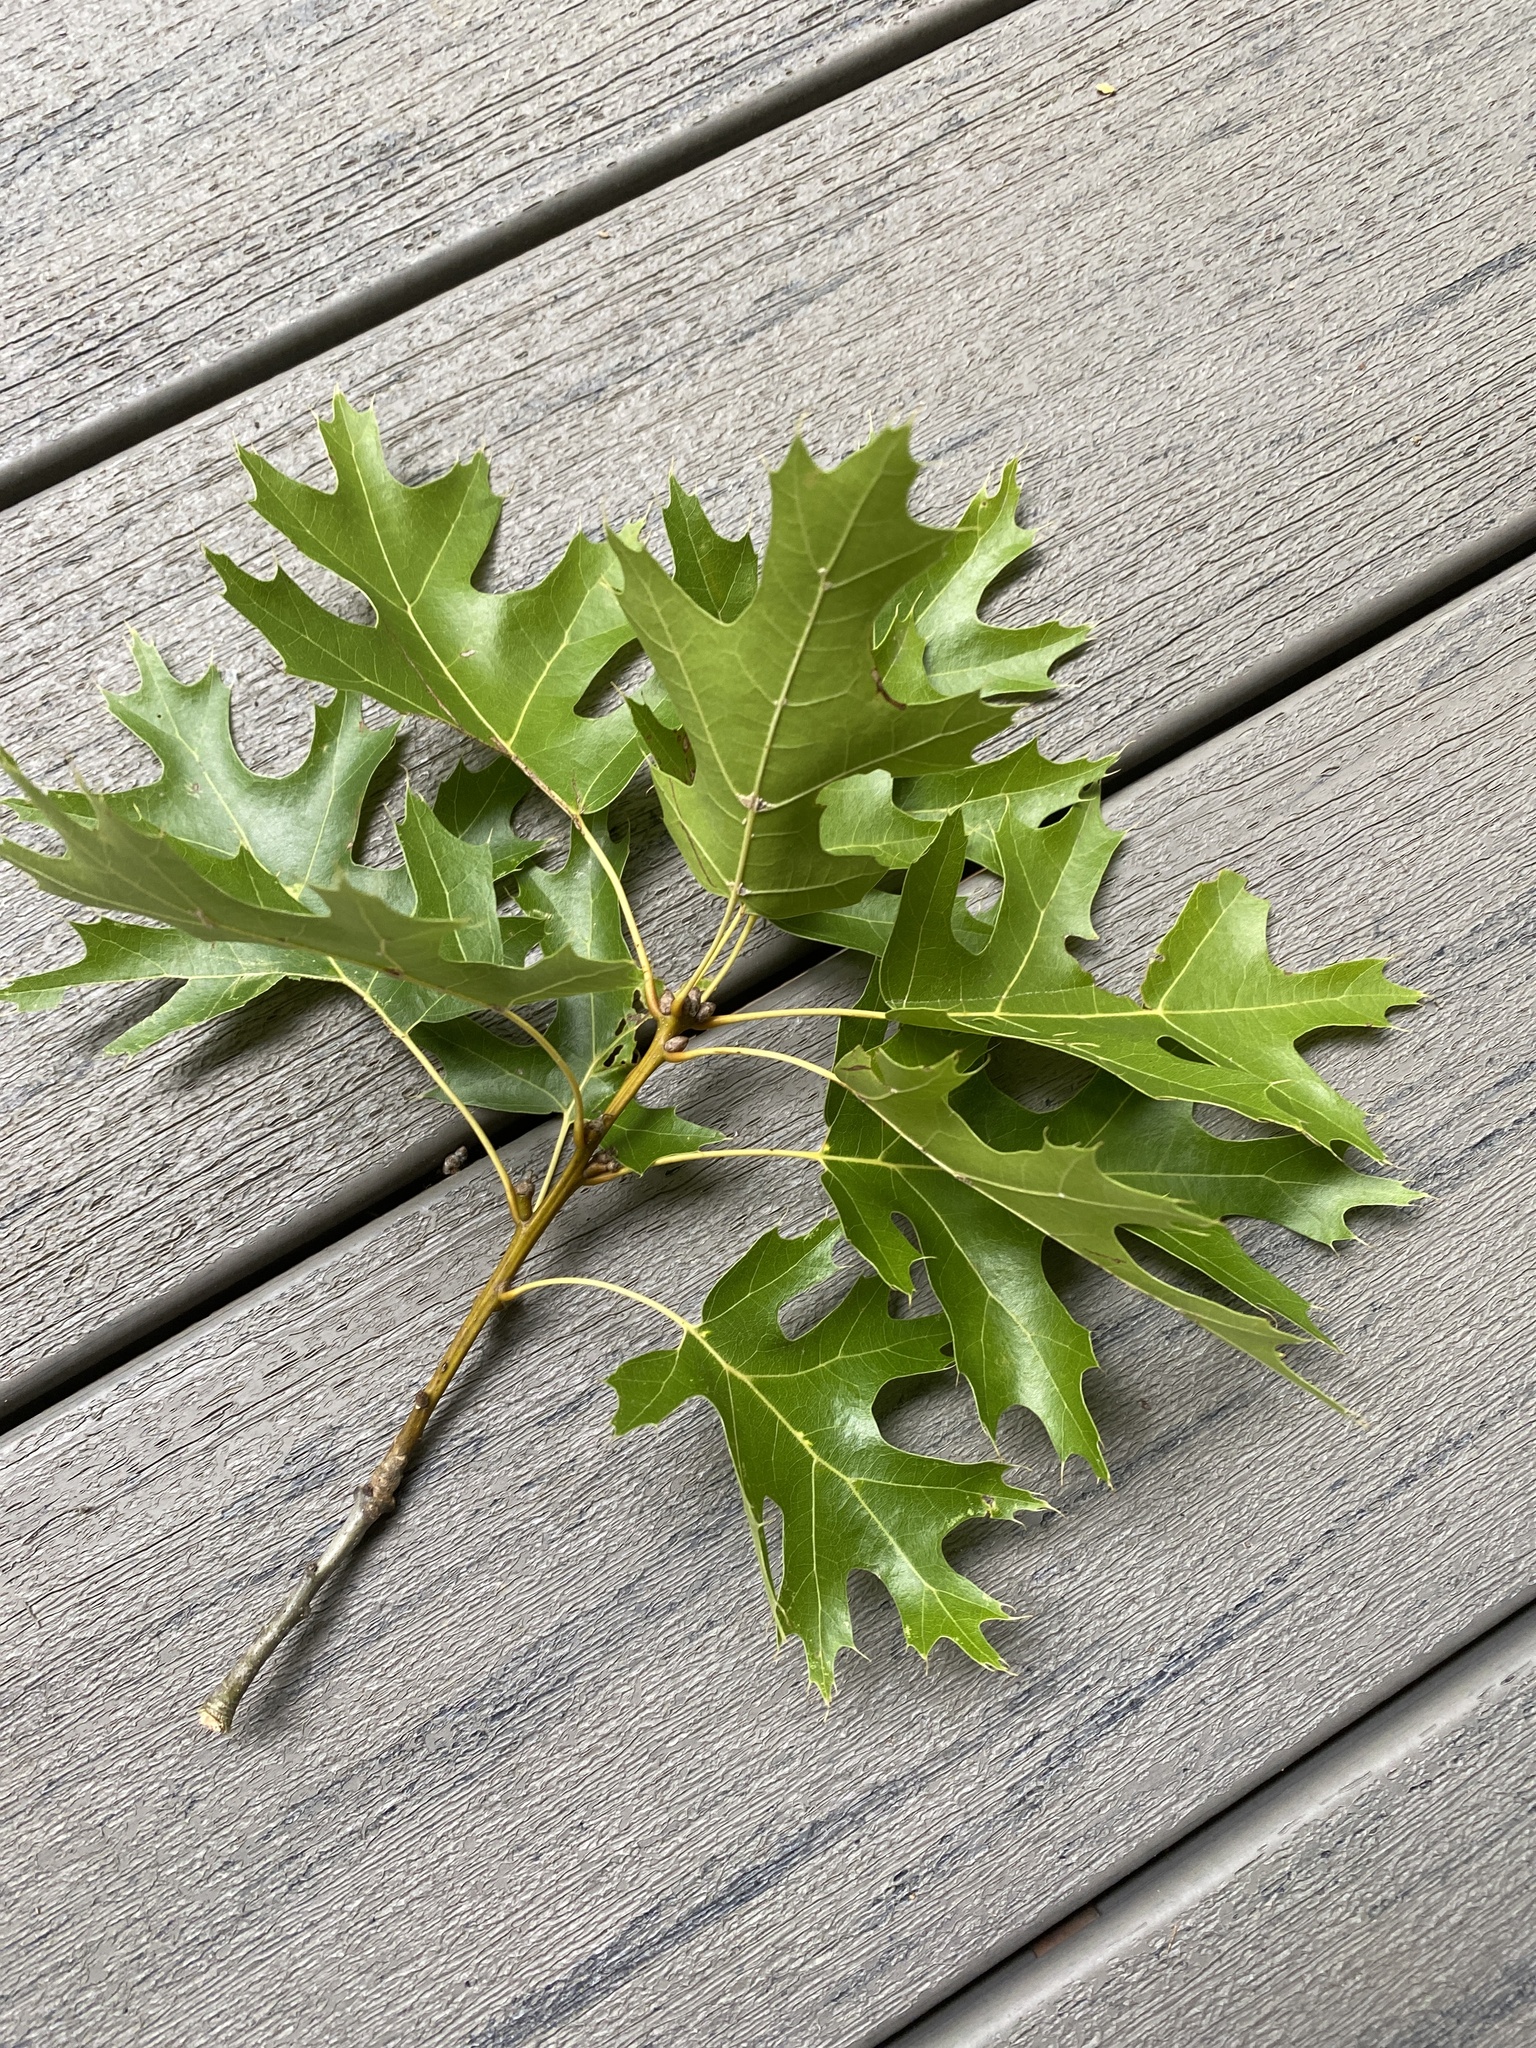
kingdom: Plantae
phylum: Tracheophyta
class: Magnoliopsida
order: Fagales
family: Fagaceae
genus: Quercus
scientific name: Quercus coccinea
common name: Scarlet oak
